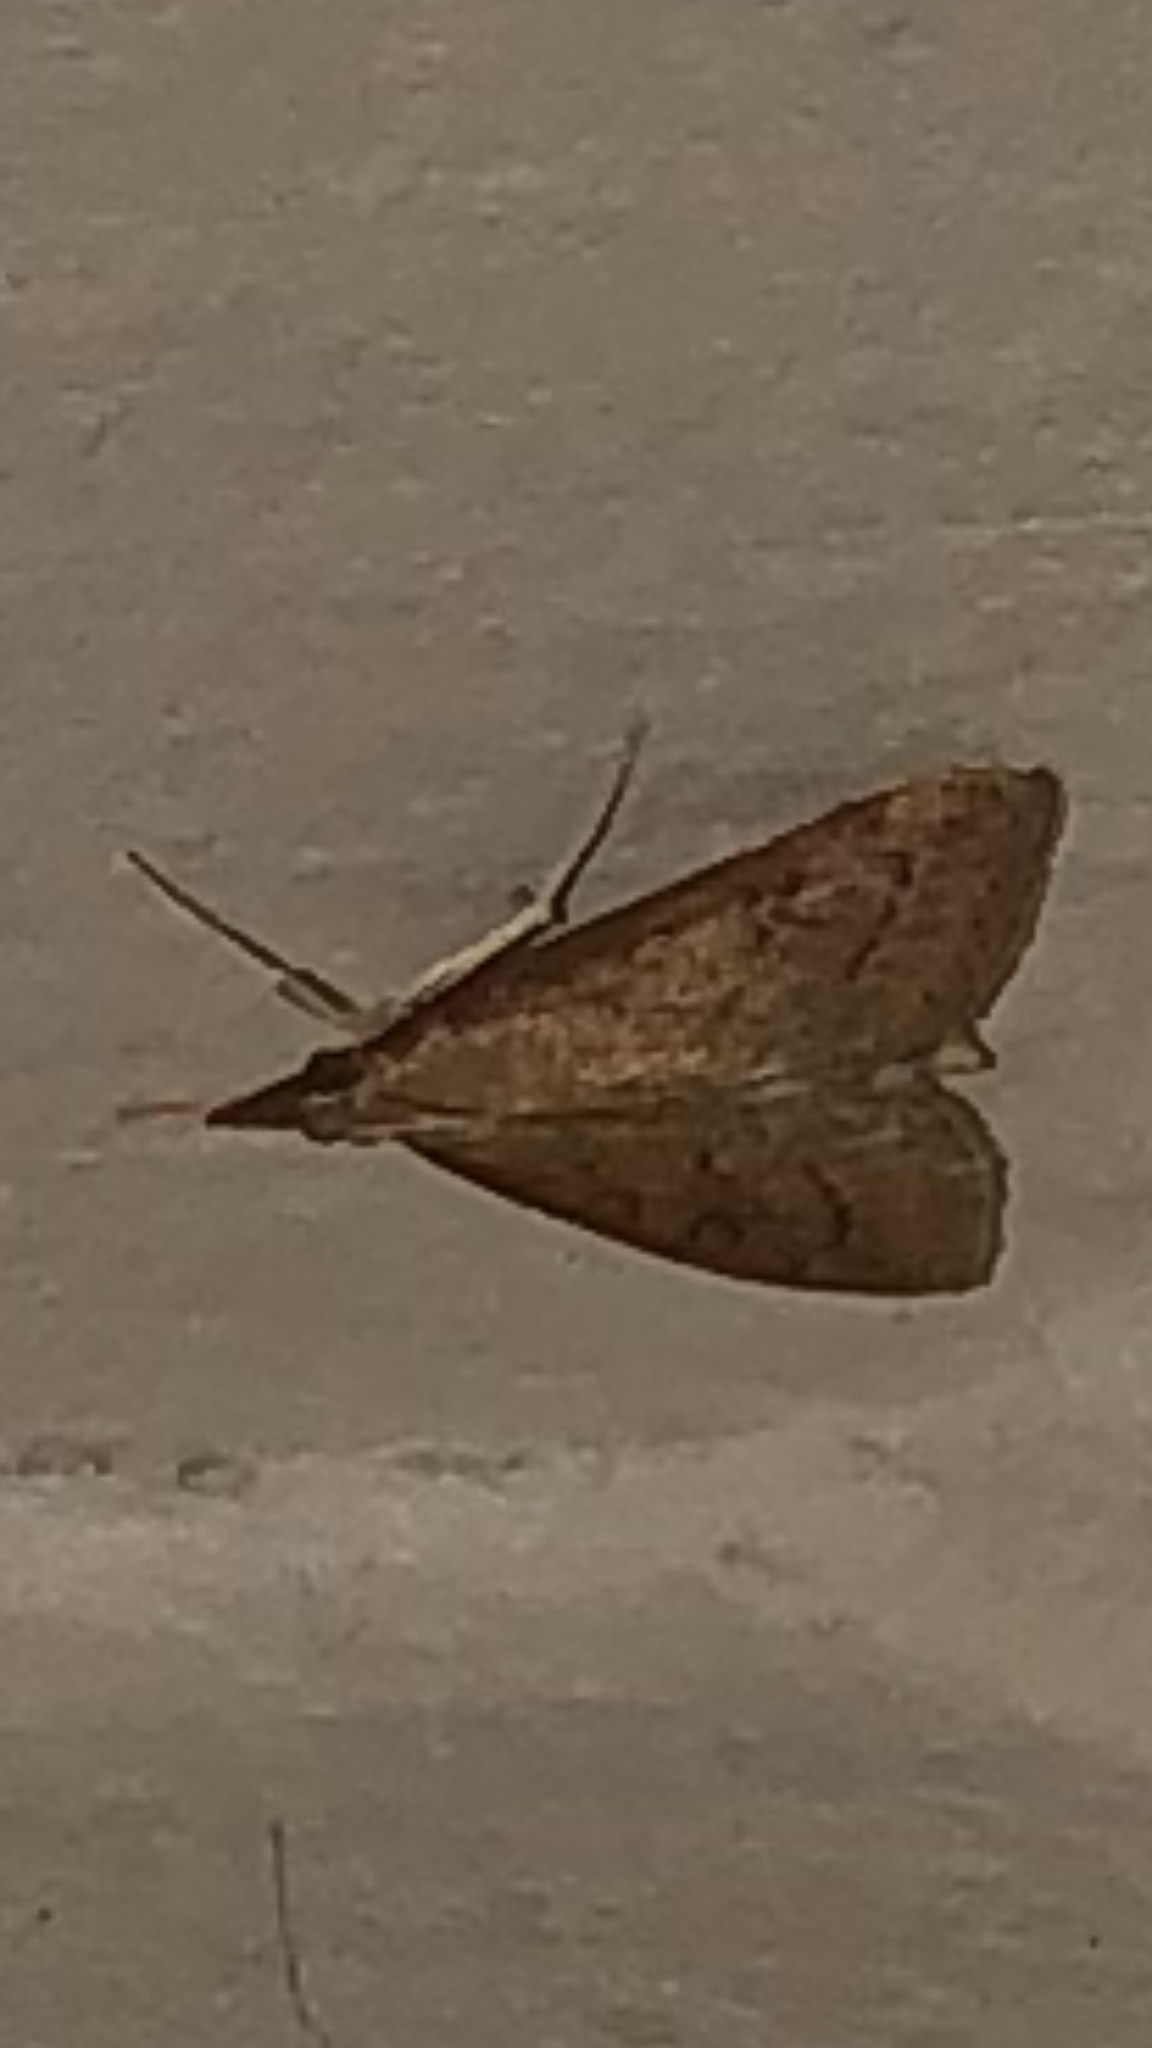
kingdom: Animalia
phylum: Arthropoda
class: Insecta
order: Lepidoptera
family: Crambidae
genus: Udea
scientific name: Udea rubigalis
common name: Celery leaftier moth
